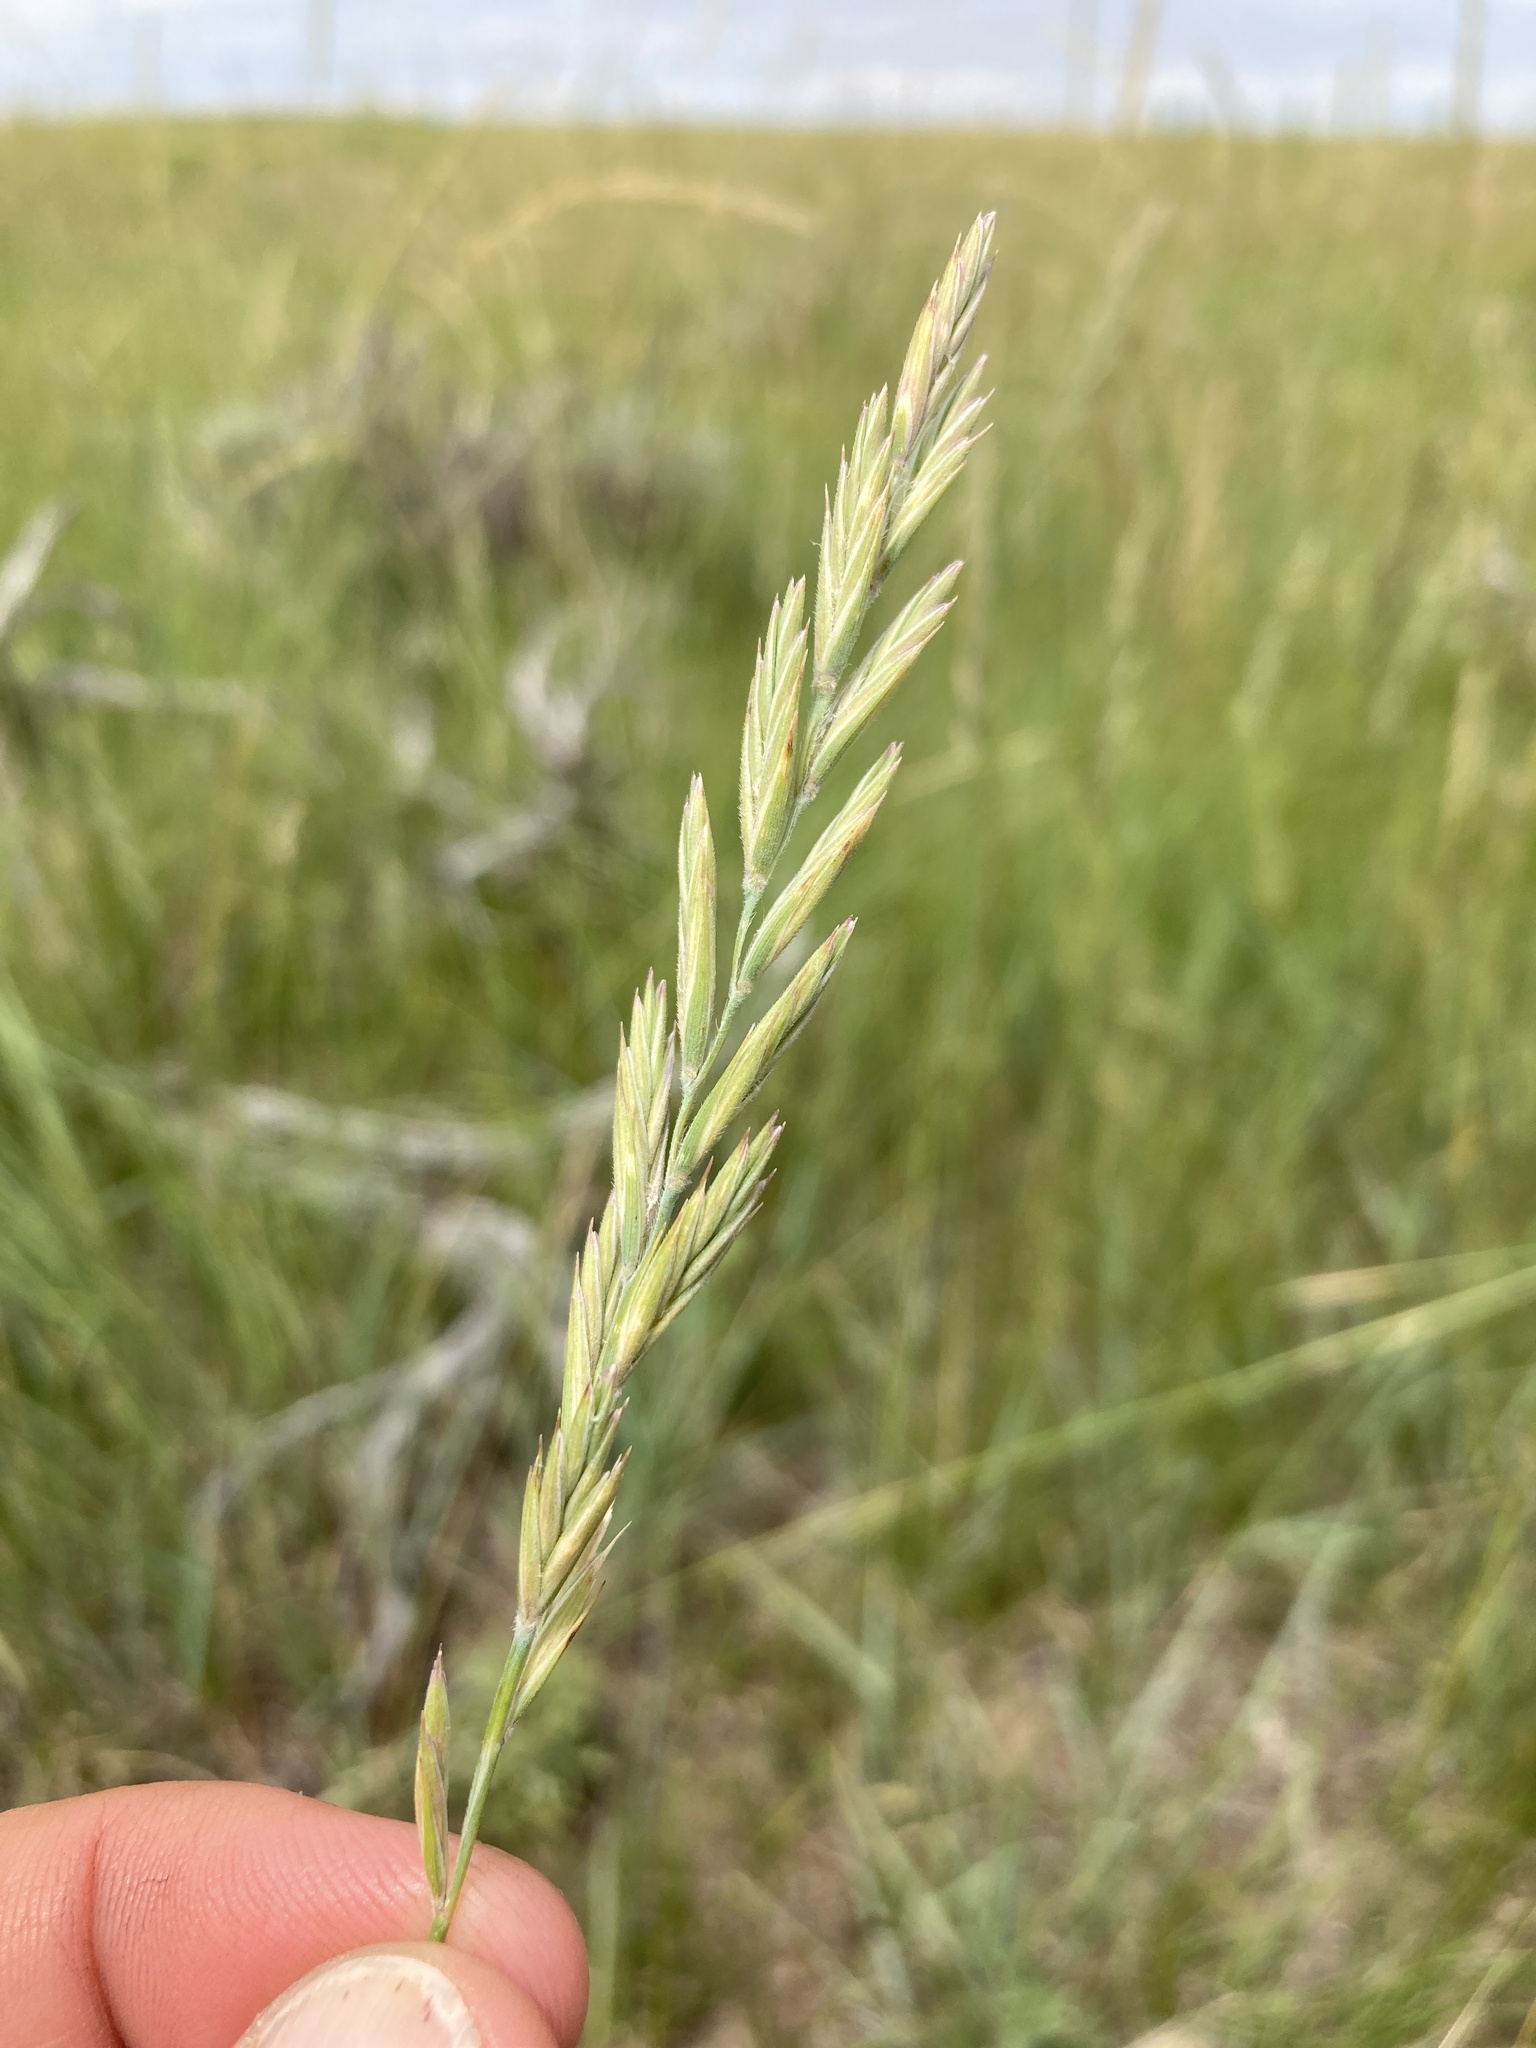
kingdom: Plantae
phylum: Tracheophyta
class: Liliopsida
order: Poales
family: Poaceae
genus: Elymus
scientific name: Elymus smithii
